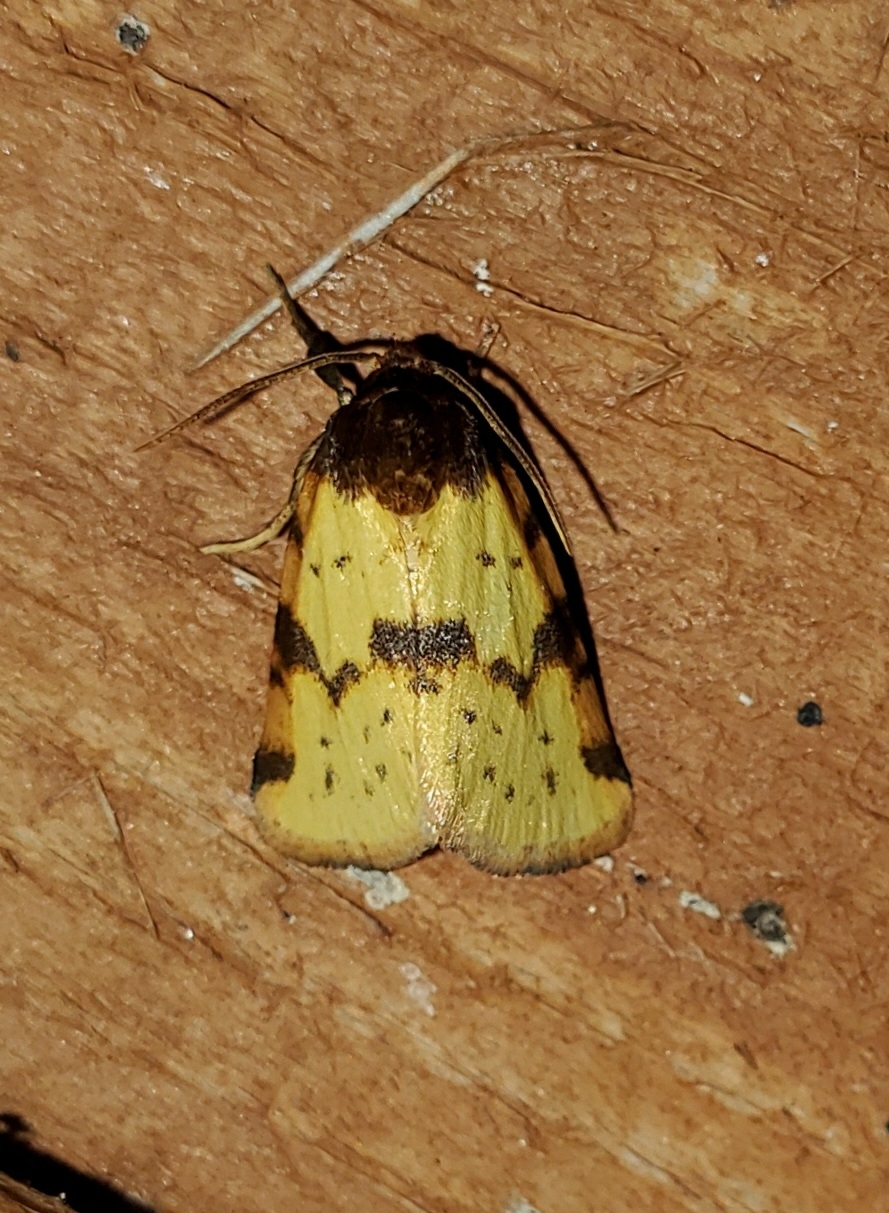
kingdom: Animalia
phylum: Arthropoda
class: Insecta
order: Lepidoptera
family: Noctuidae
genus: Azenia
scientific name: Azenia obtusa
